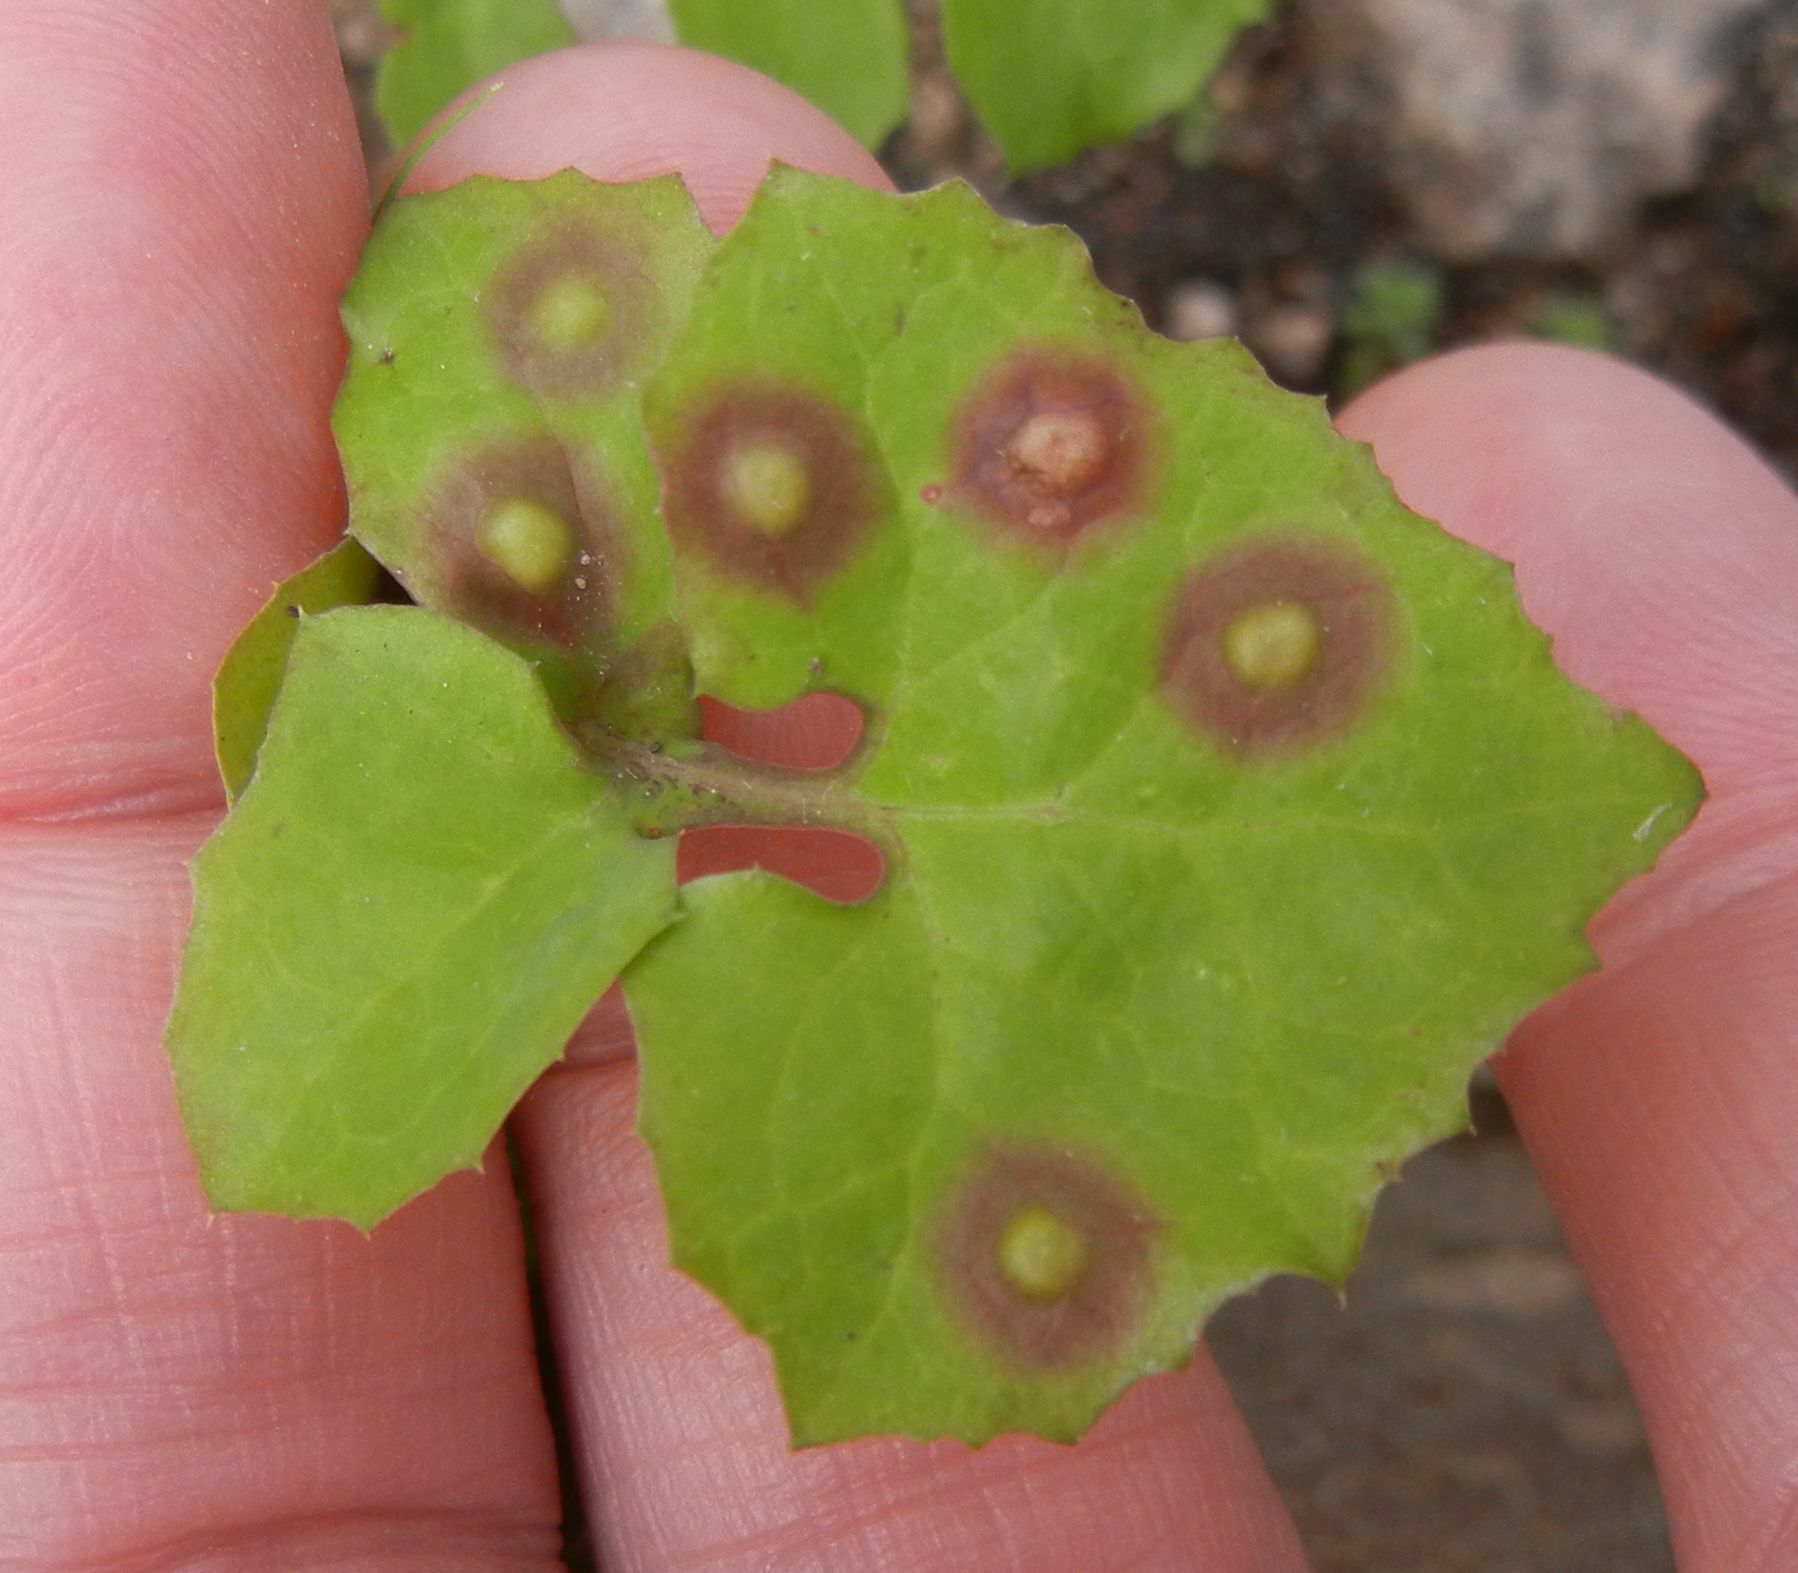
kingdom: Animalia
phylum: Arthropoda
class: Insecta
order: Diptera
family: Cecidomyiidae
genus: Cystiphora
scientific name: Cystiphora sonchi
